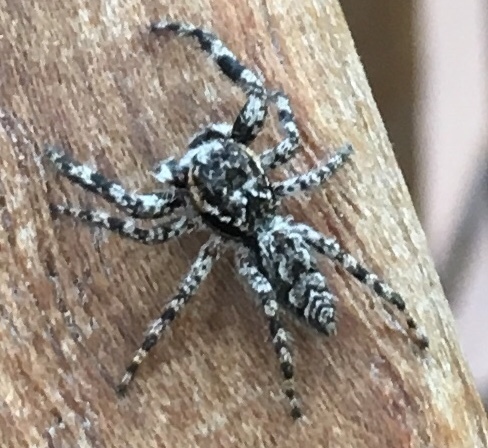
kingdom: Animalia
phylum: Arthropoda
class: Arachnida
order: Araneae
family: Salticidae
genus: Platycryptus
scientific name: Platycryptus undatus
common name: Tan jumping spider
